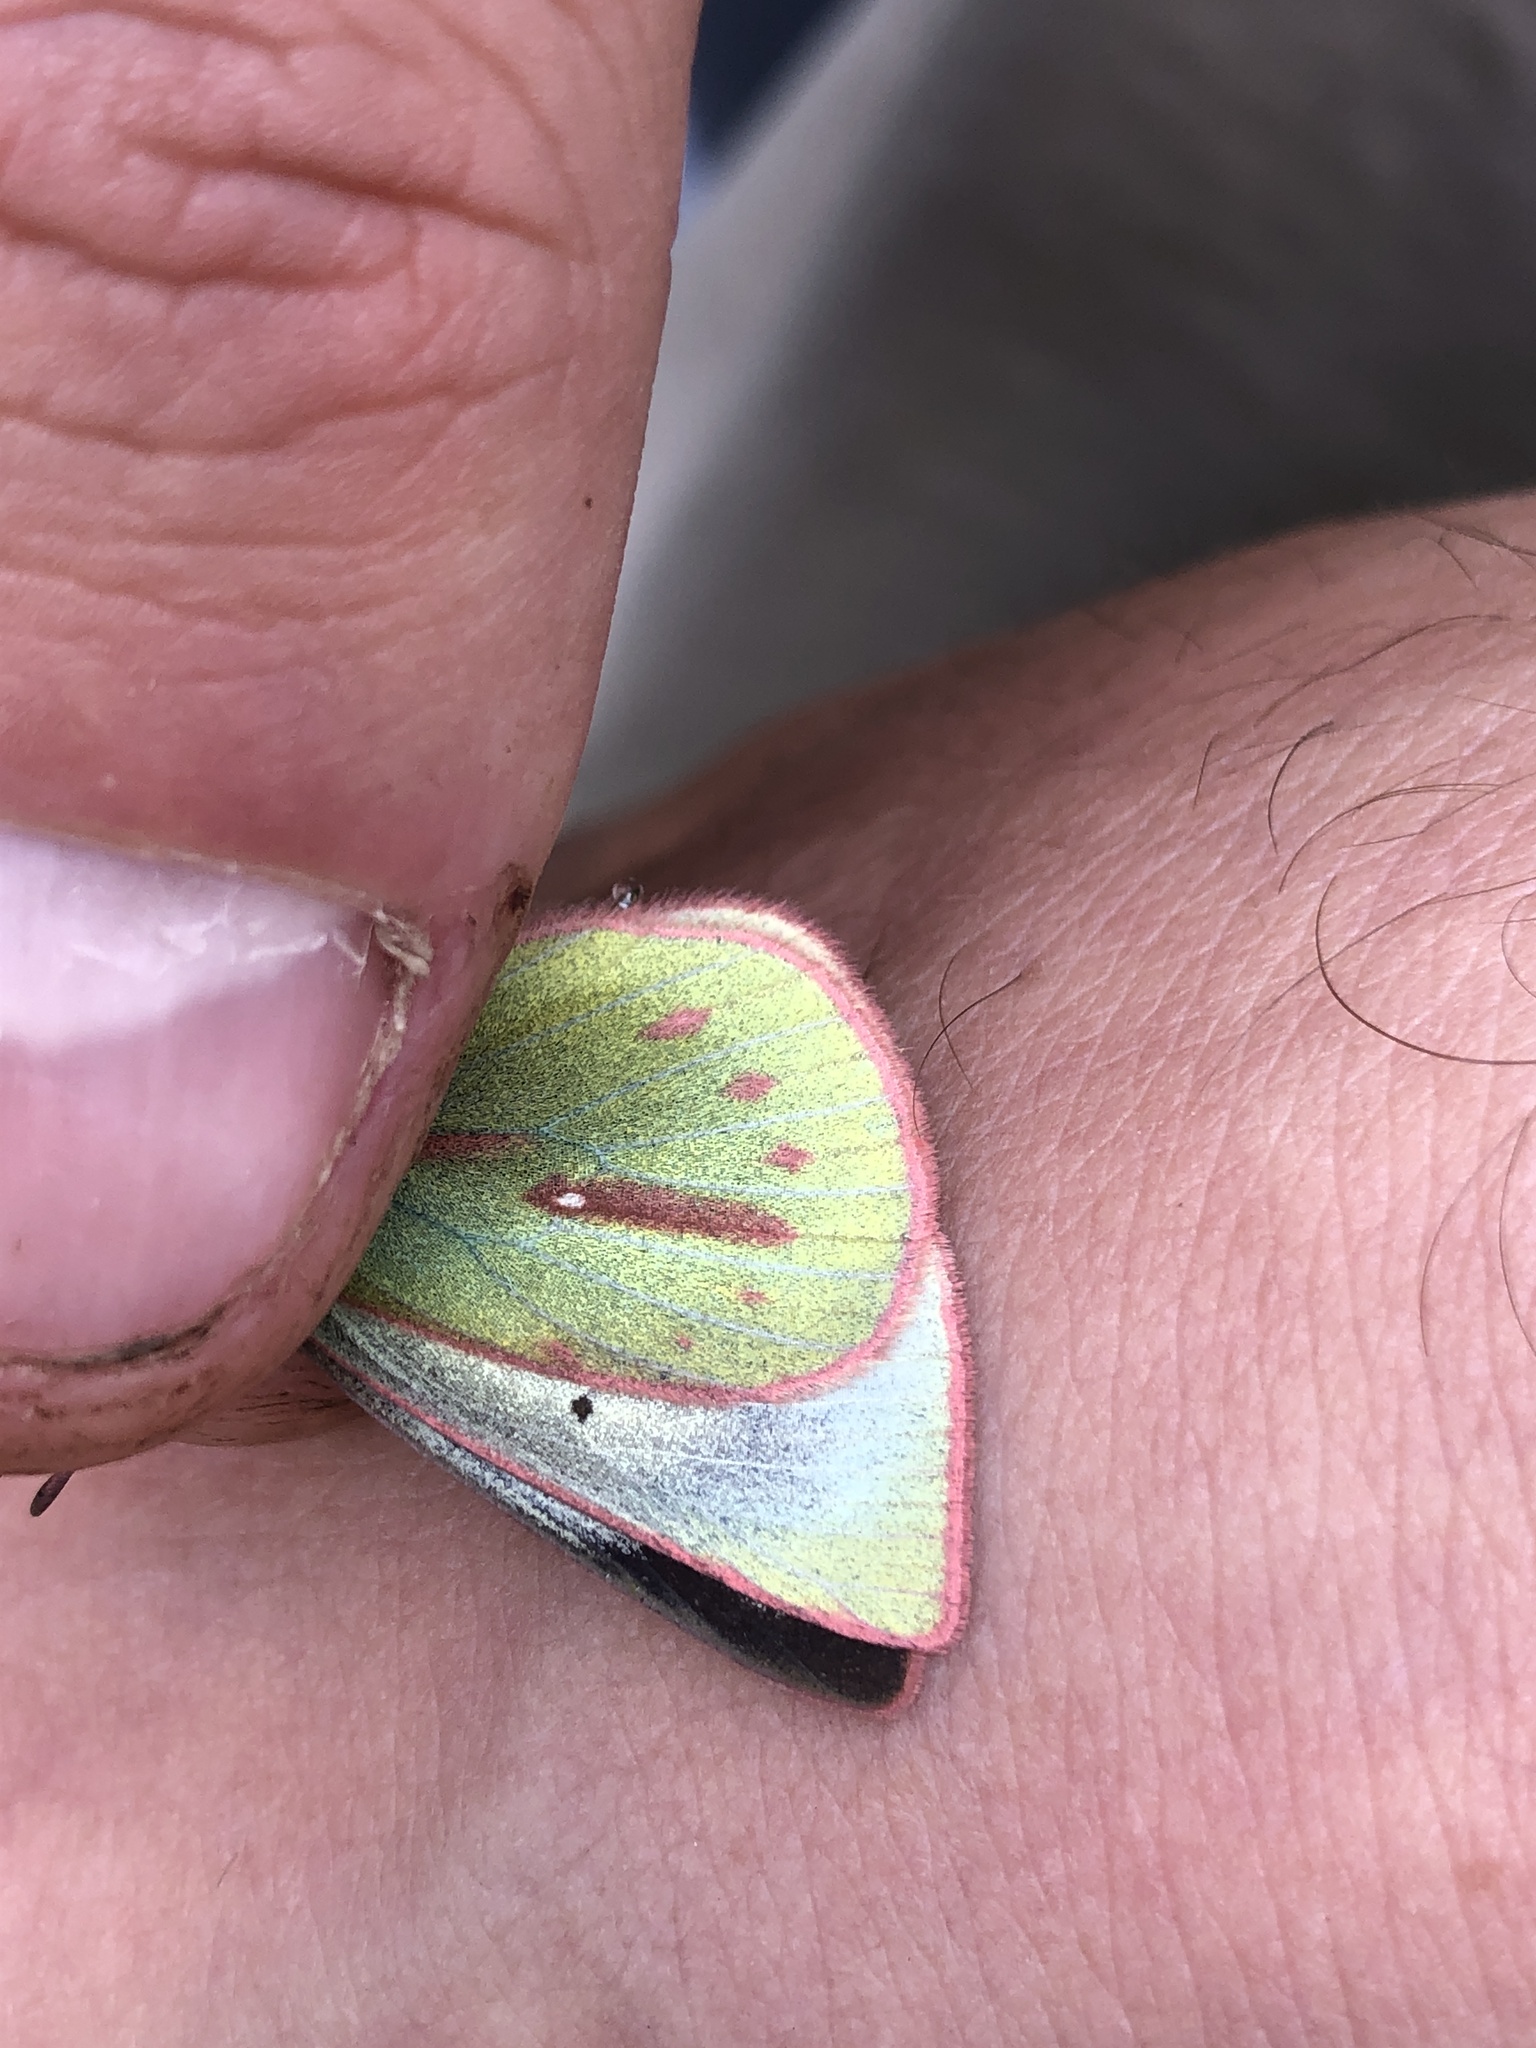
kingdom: Animalia
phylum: Arthropoda
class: Insecta
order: Lepidoptera
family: Pieridae
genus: Colias
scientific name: Colias dimera
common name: Dimera sulphur
